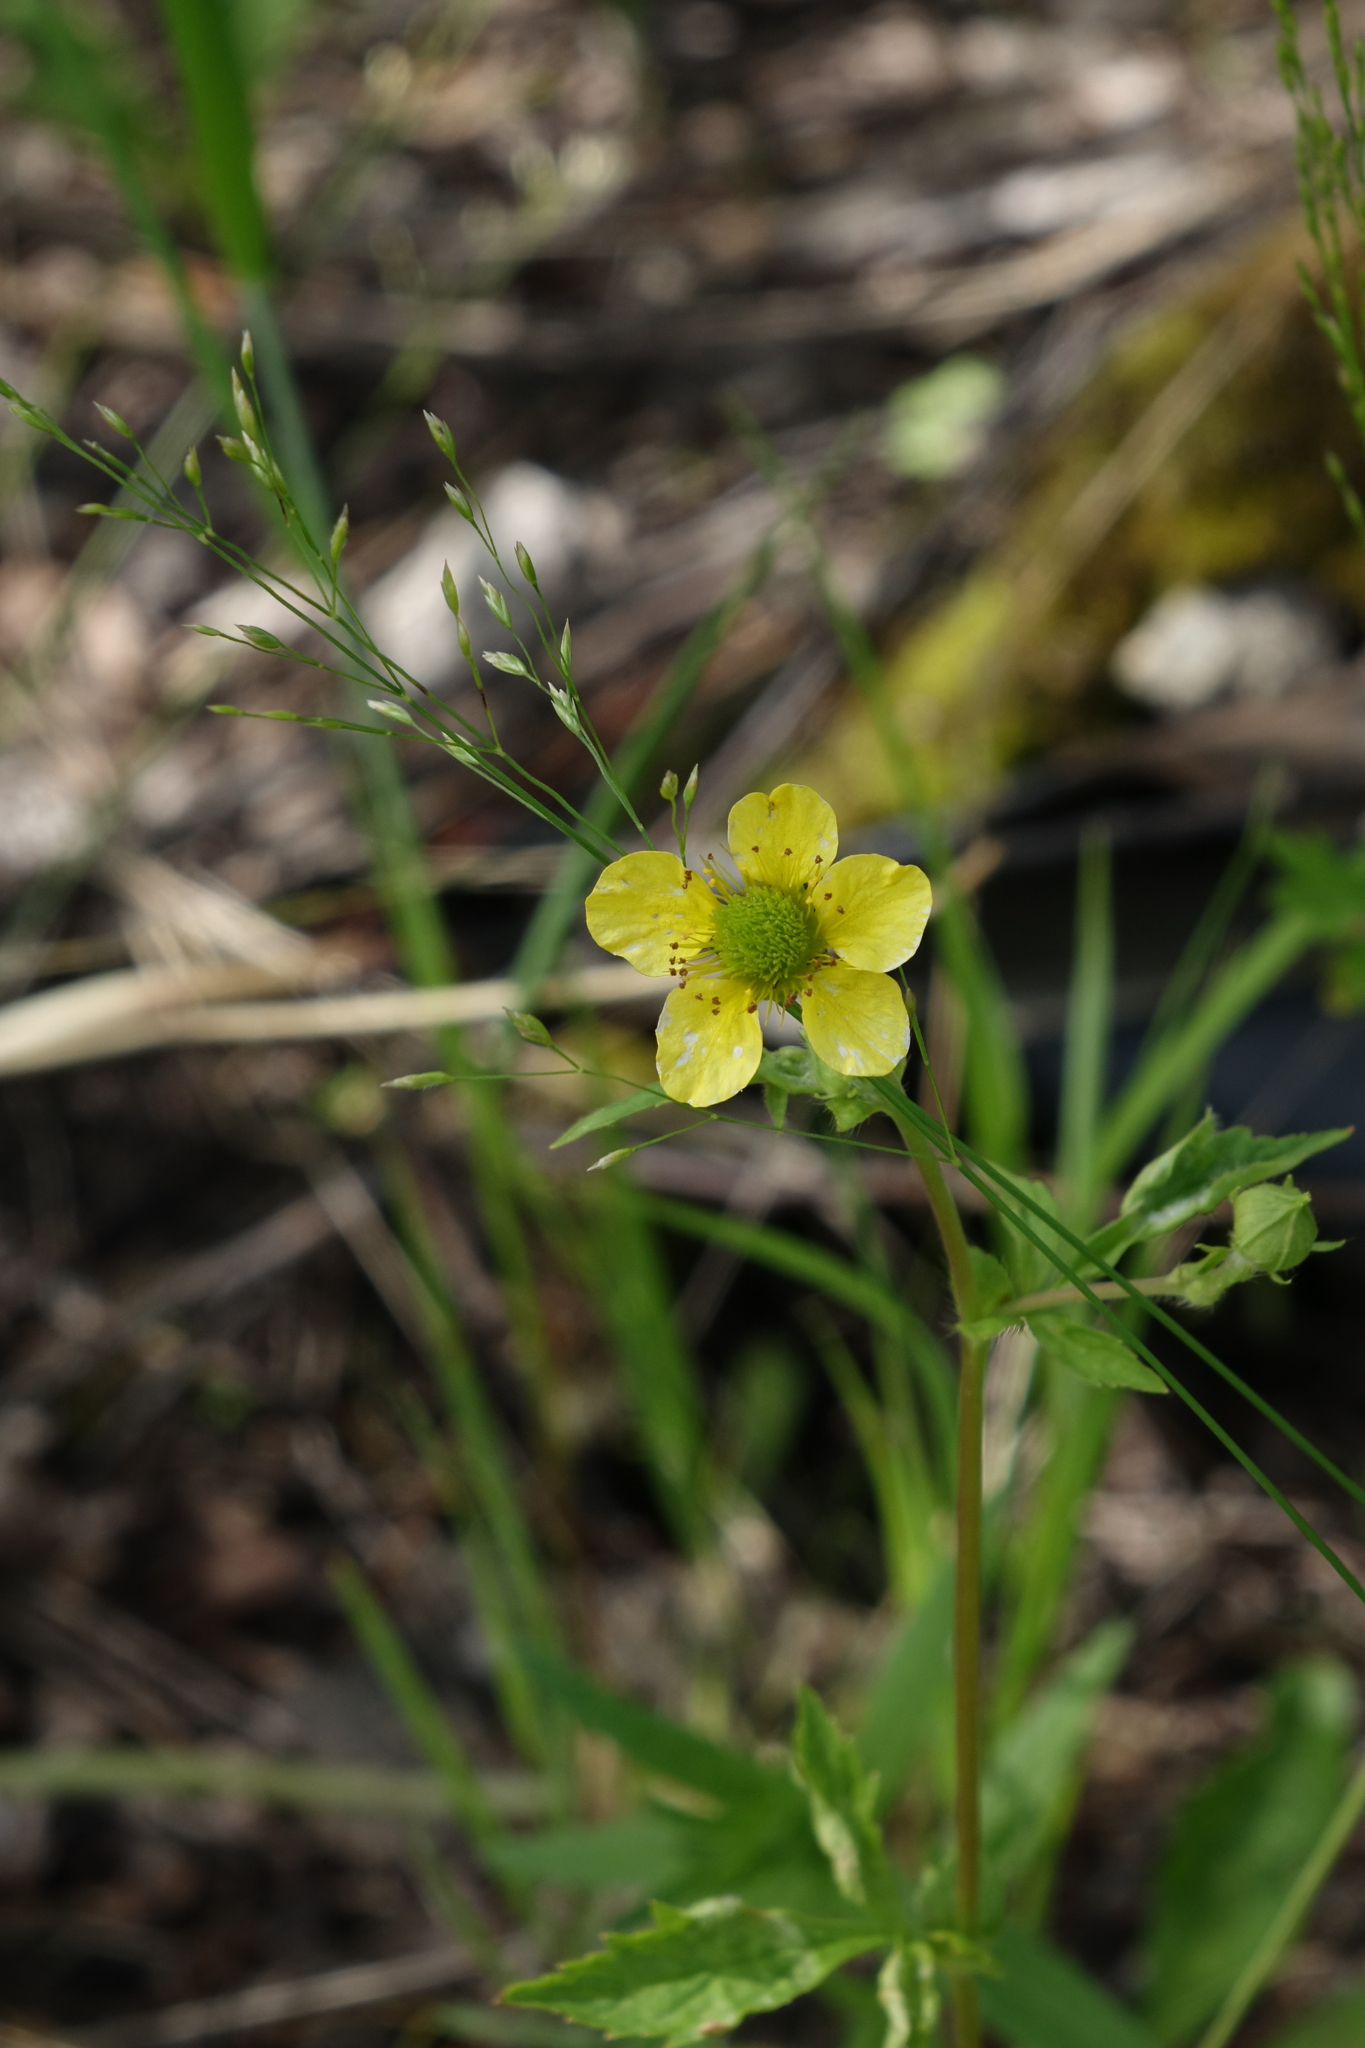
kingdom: Plantae
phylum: Tracheophyta
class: Magnoliopsida
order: Rosales
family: Rosaceae
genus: Geum
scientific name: Geum aleppicum
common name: Yellow avens
